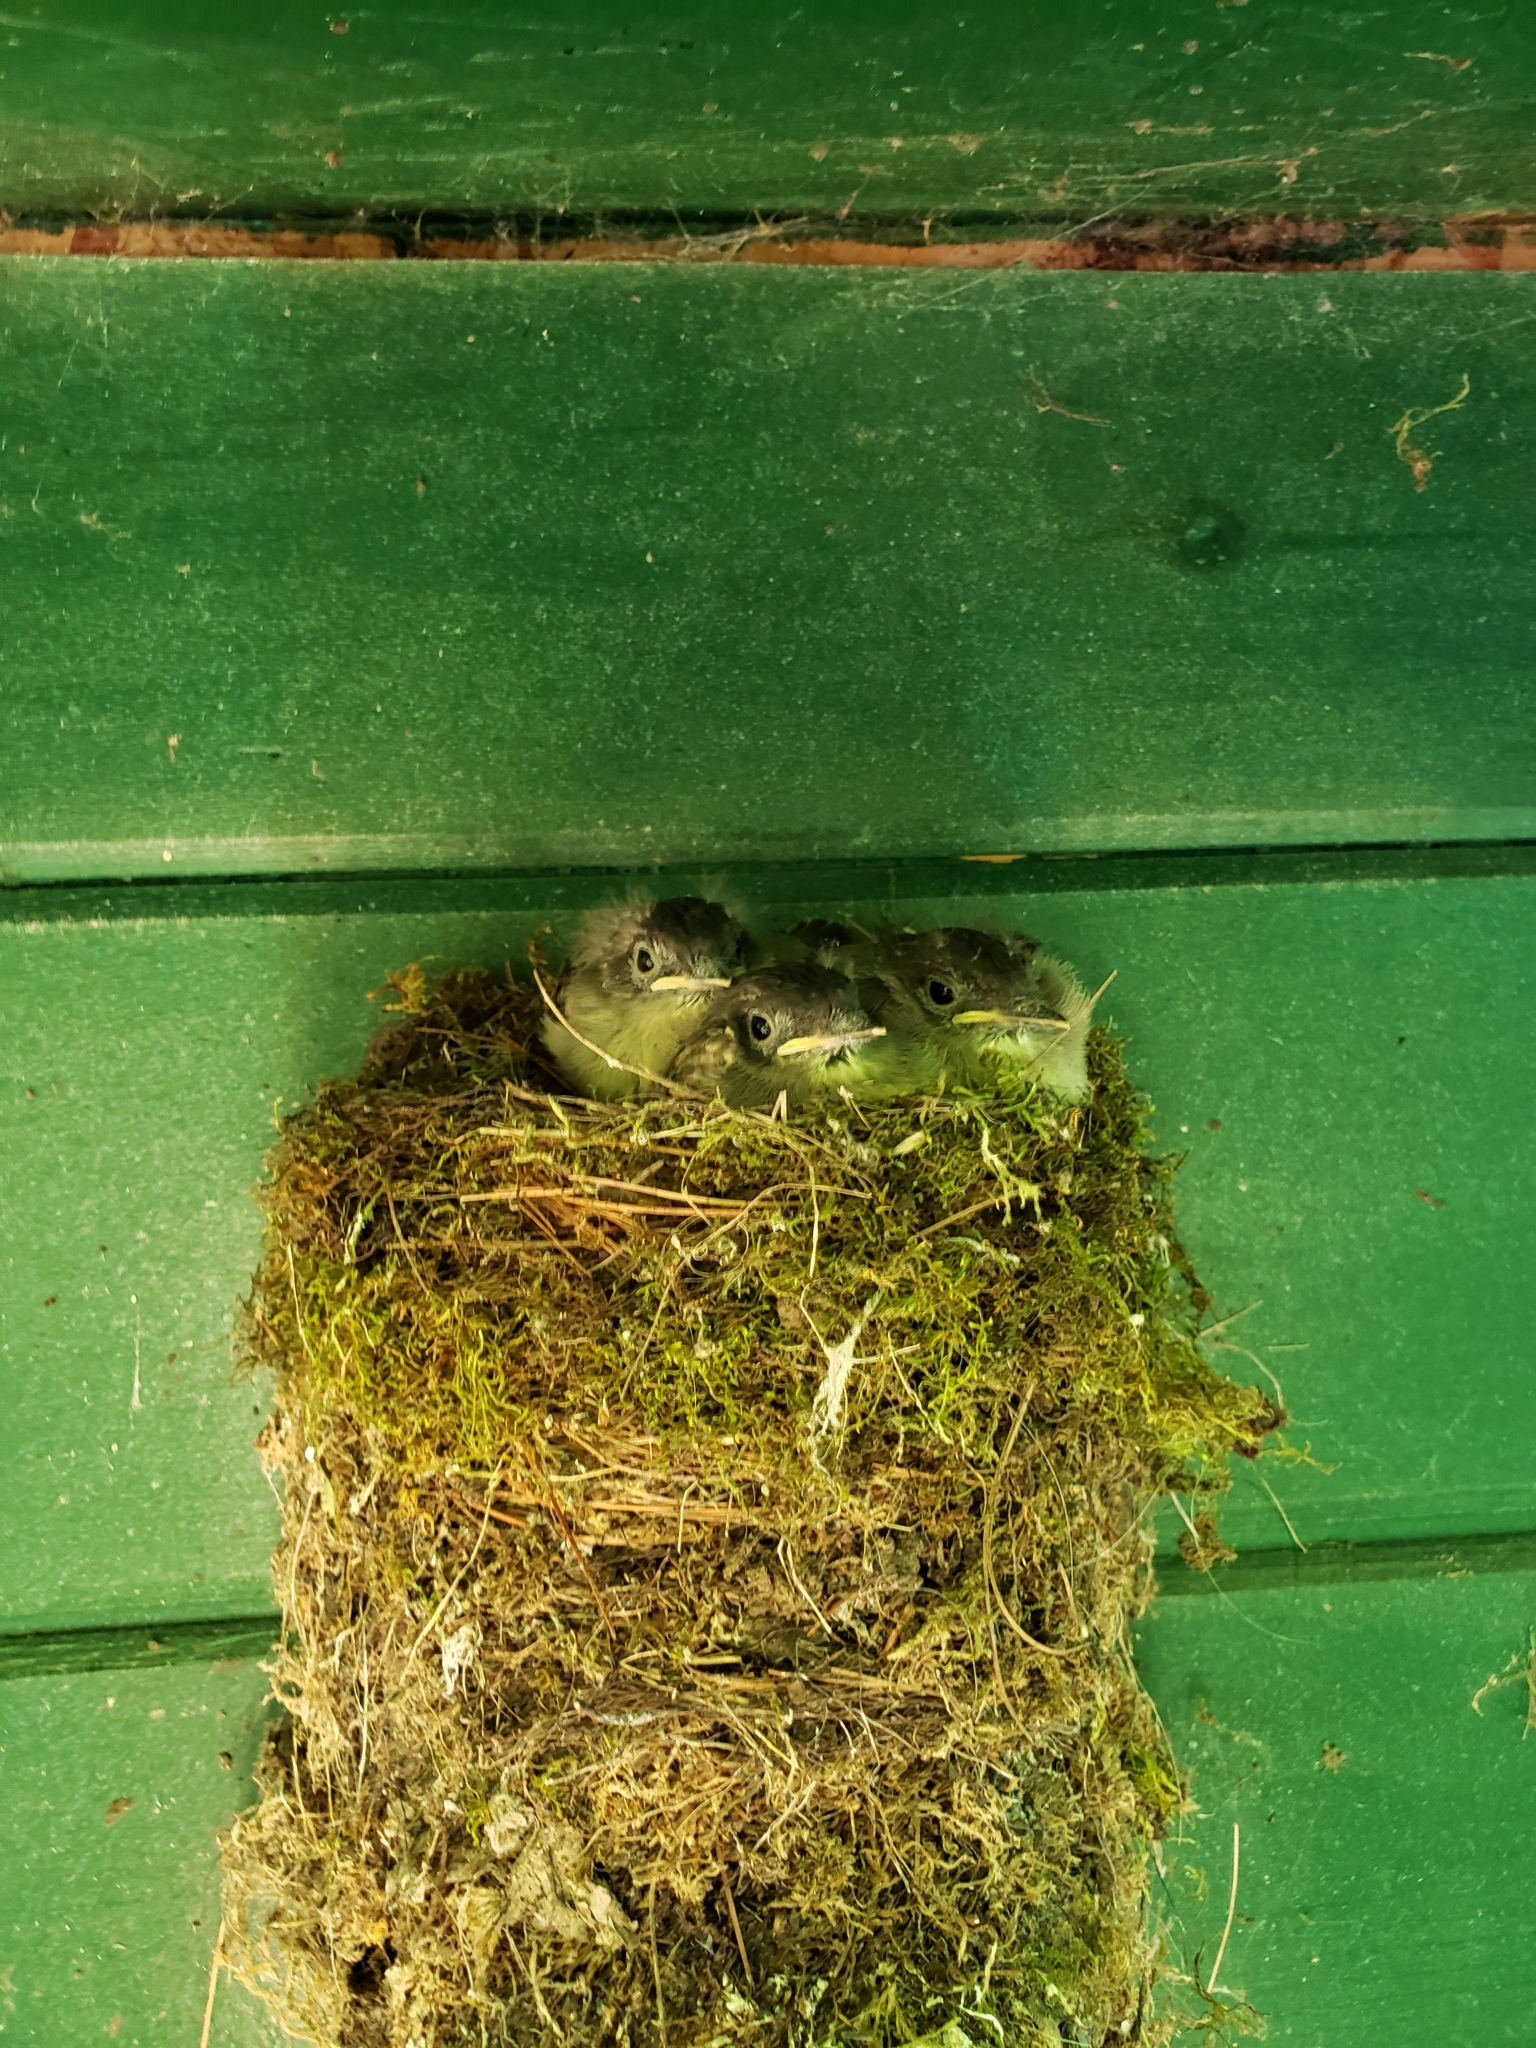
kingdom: Animalia
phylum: Chordata
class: Aves
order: Passeriformes
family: Tyrannidae
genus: Sayornis
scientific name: Sayornis phoebe
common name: Eastern phoebe
